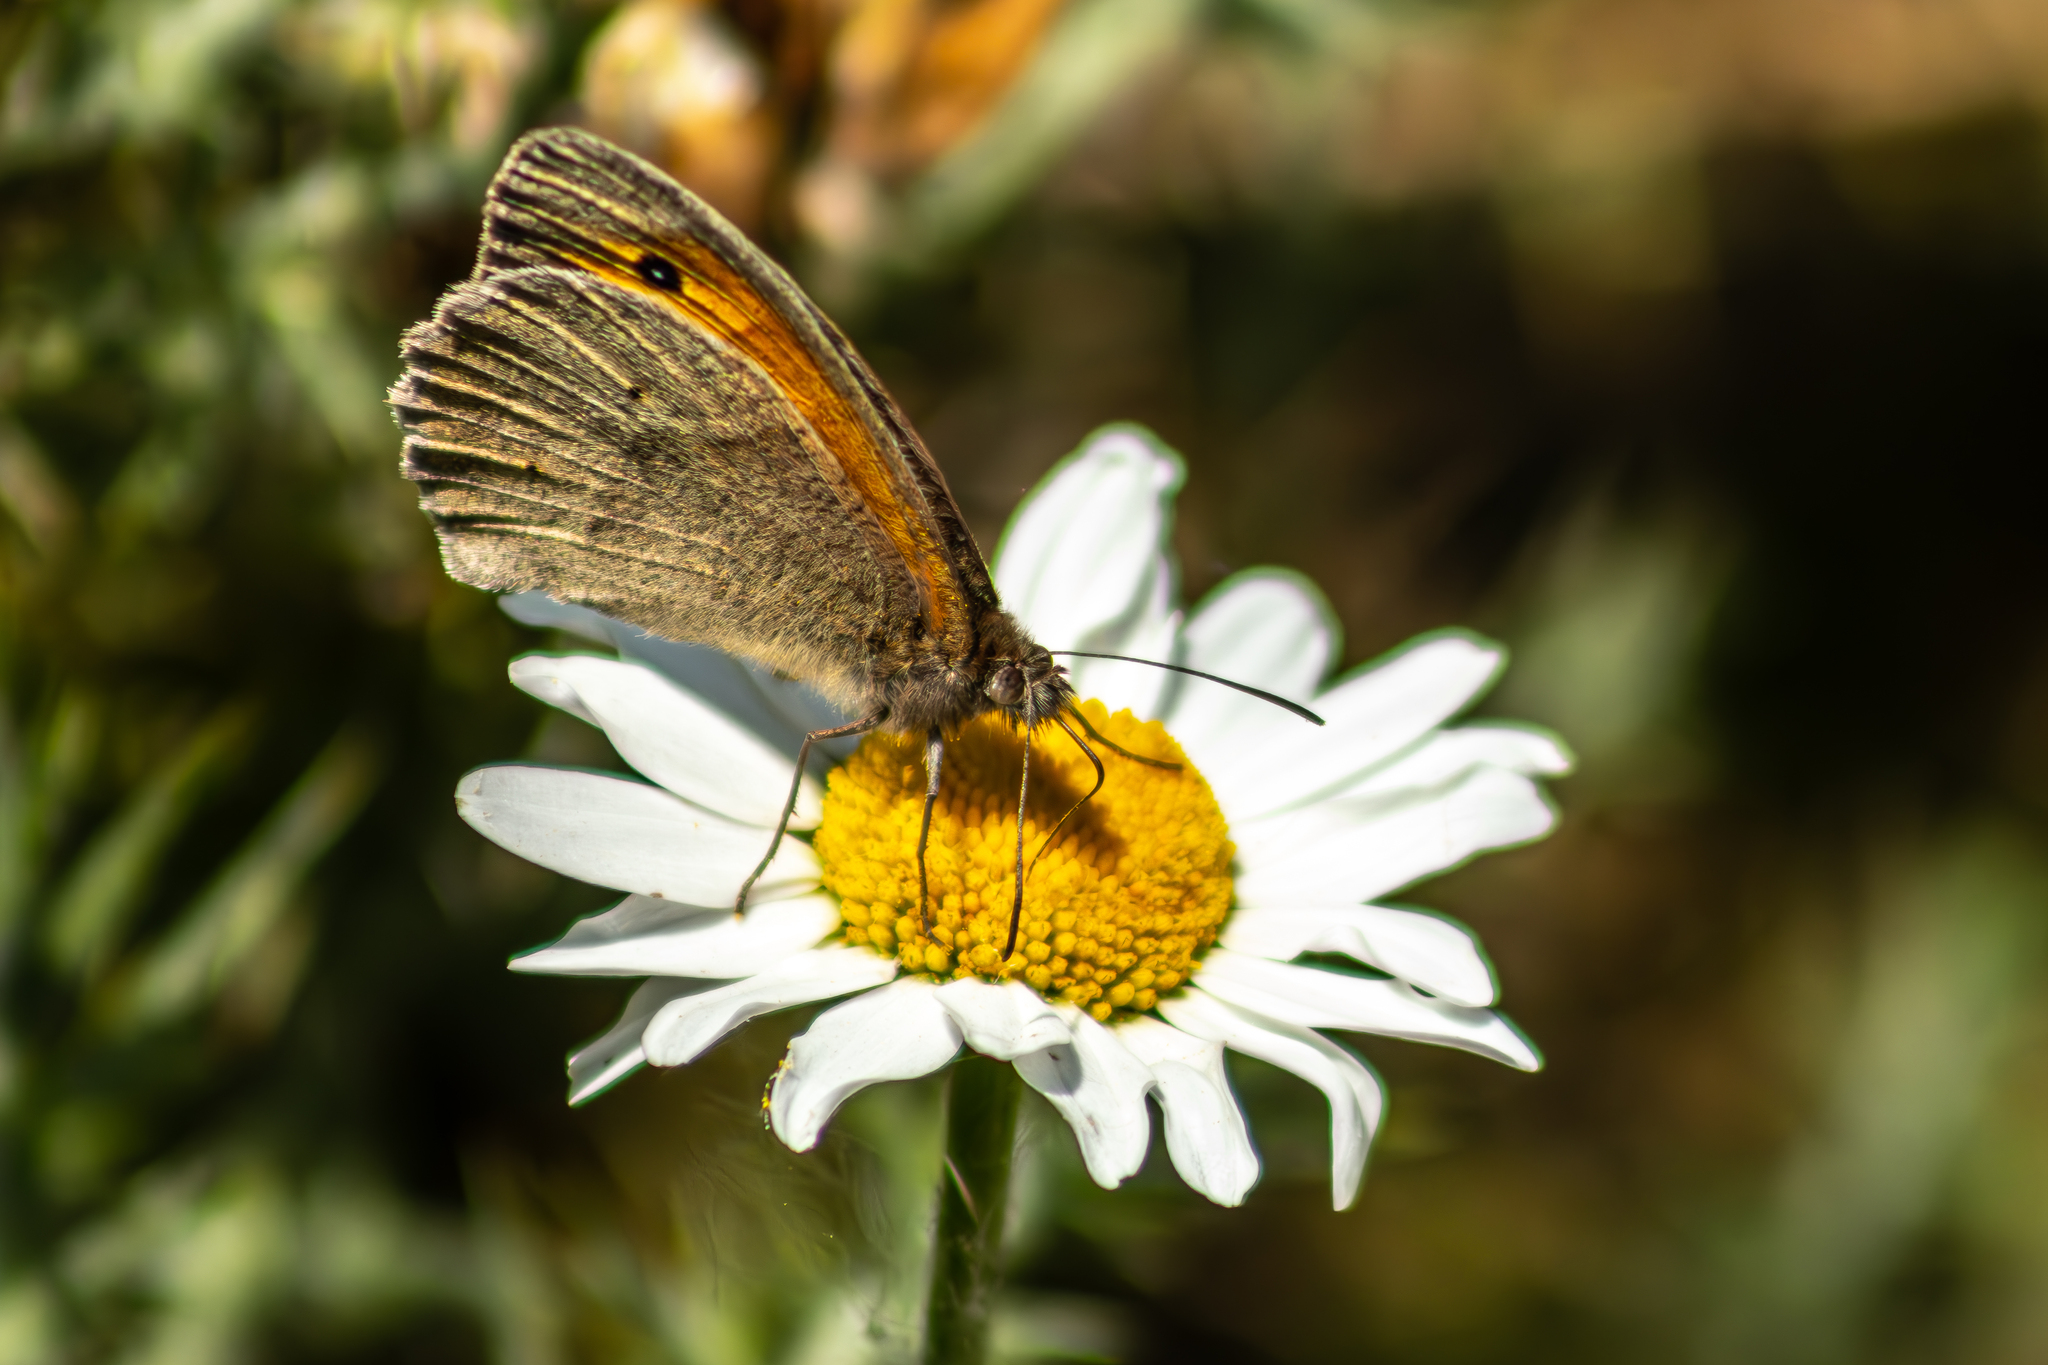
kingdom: Animalia
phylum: Arthropoda
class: Insecta
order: Lepidoptera
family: Nymphalidae
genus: Maniola
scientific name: Maniola jurtina
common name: Meadow brown
